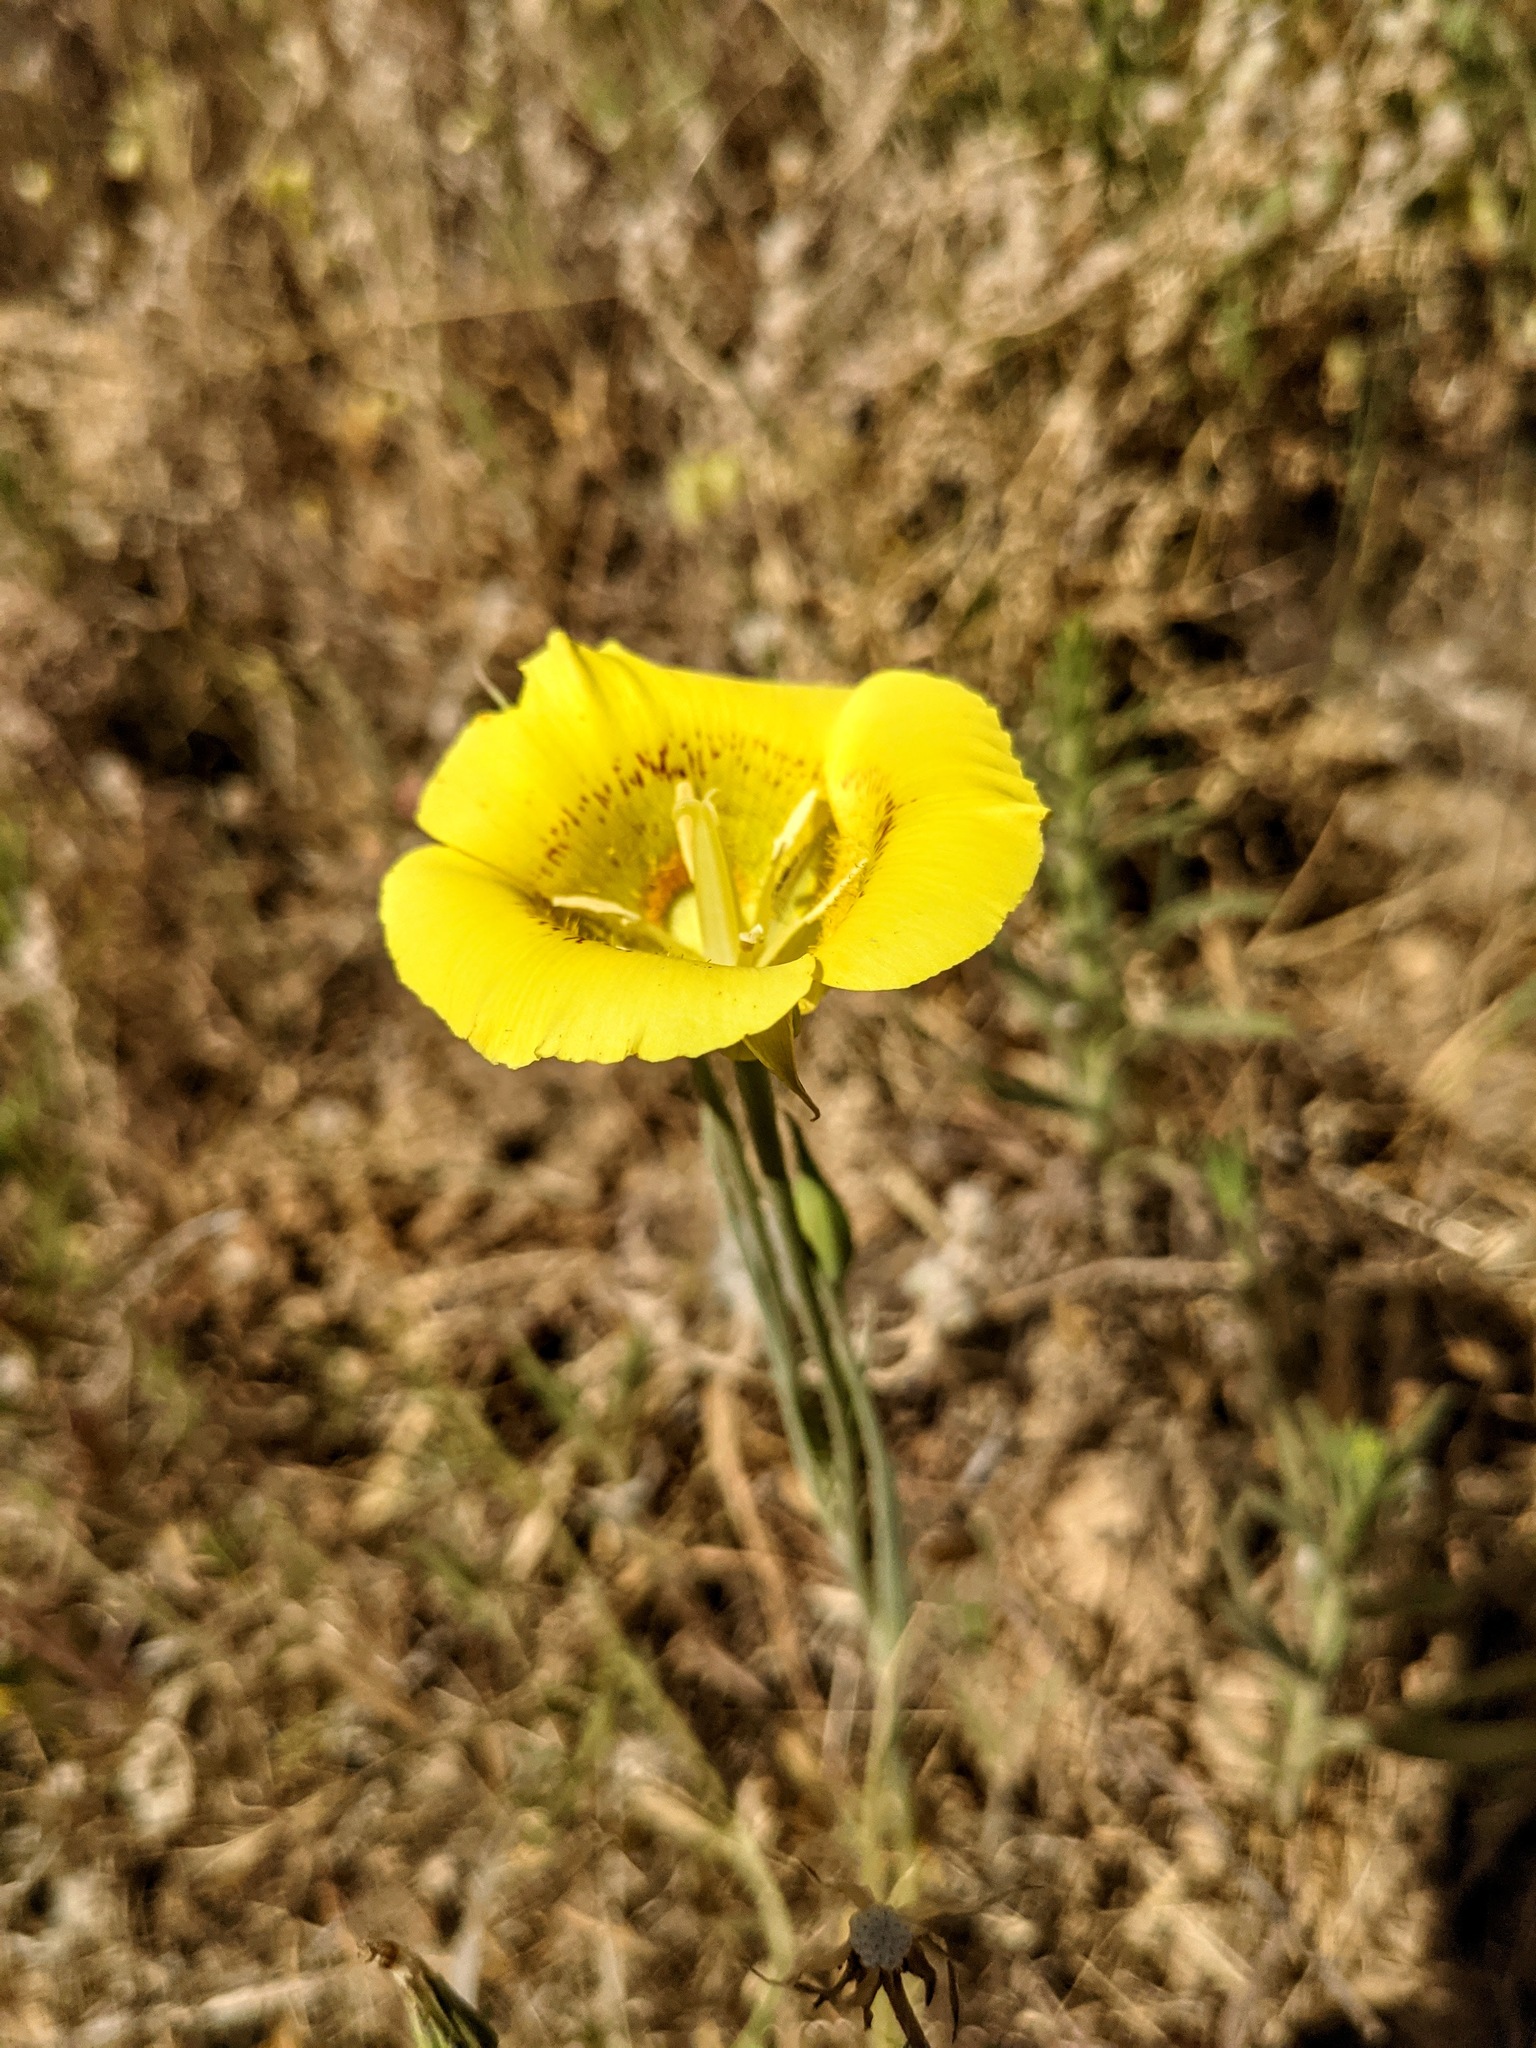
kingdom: Plantae
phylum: Tracheophyta
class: Liliopsida
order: Liliales
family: Liliaceae
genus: Calochortus
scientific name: Calochortus luteus
